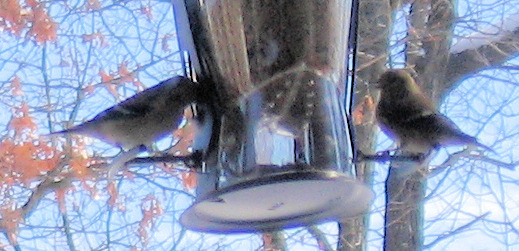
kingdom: Animalia
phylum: Chordata
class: Aves
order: Passeriformes
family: Fringillidae
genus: Spinus
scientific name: Spinus tristis
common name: American goldfinch
